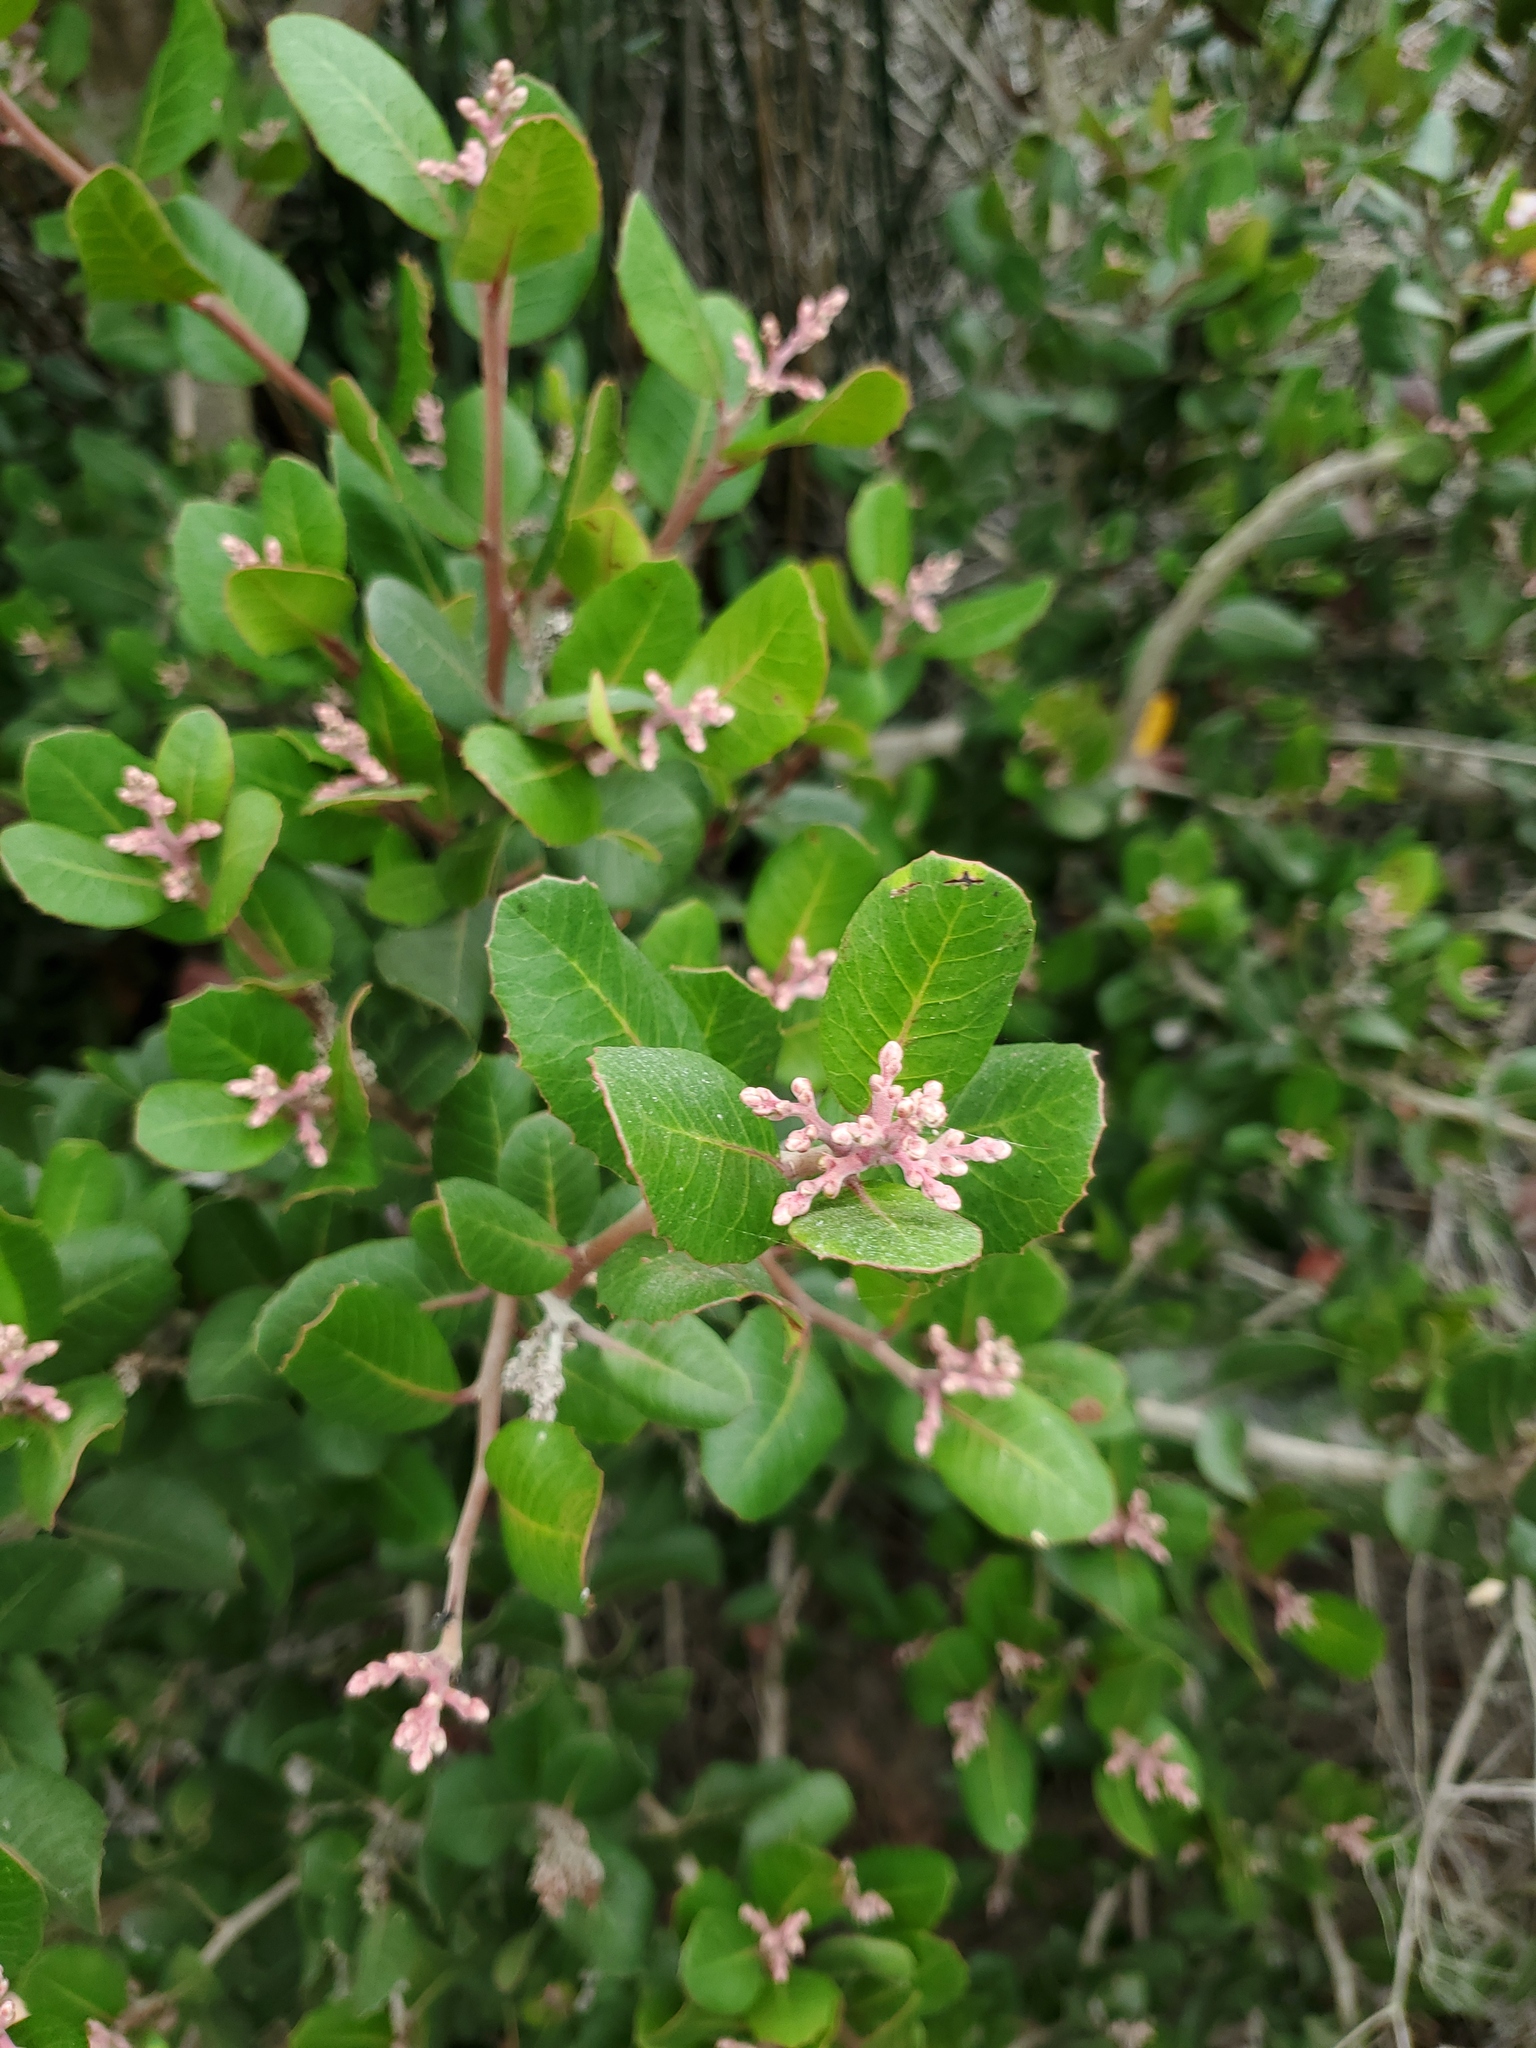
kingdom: Plantae
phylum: Tracheophyta
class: Magnoliopsida
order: Sapindales
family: Anacardiaceae
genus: Rhus
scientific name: Rhus integrifolia
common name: Lemonade sumac
